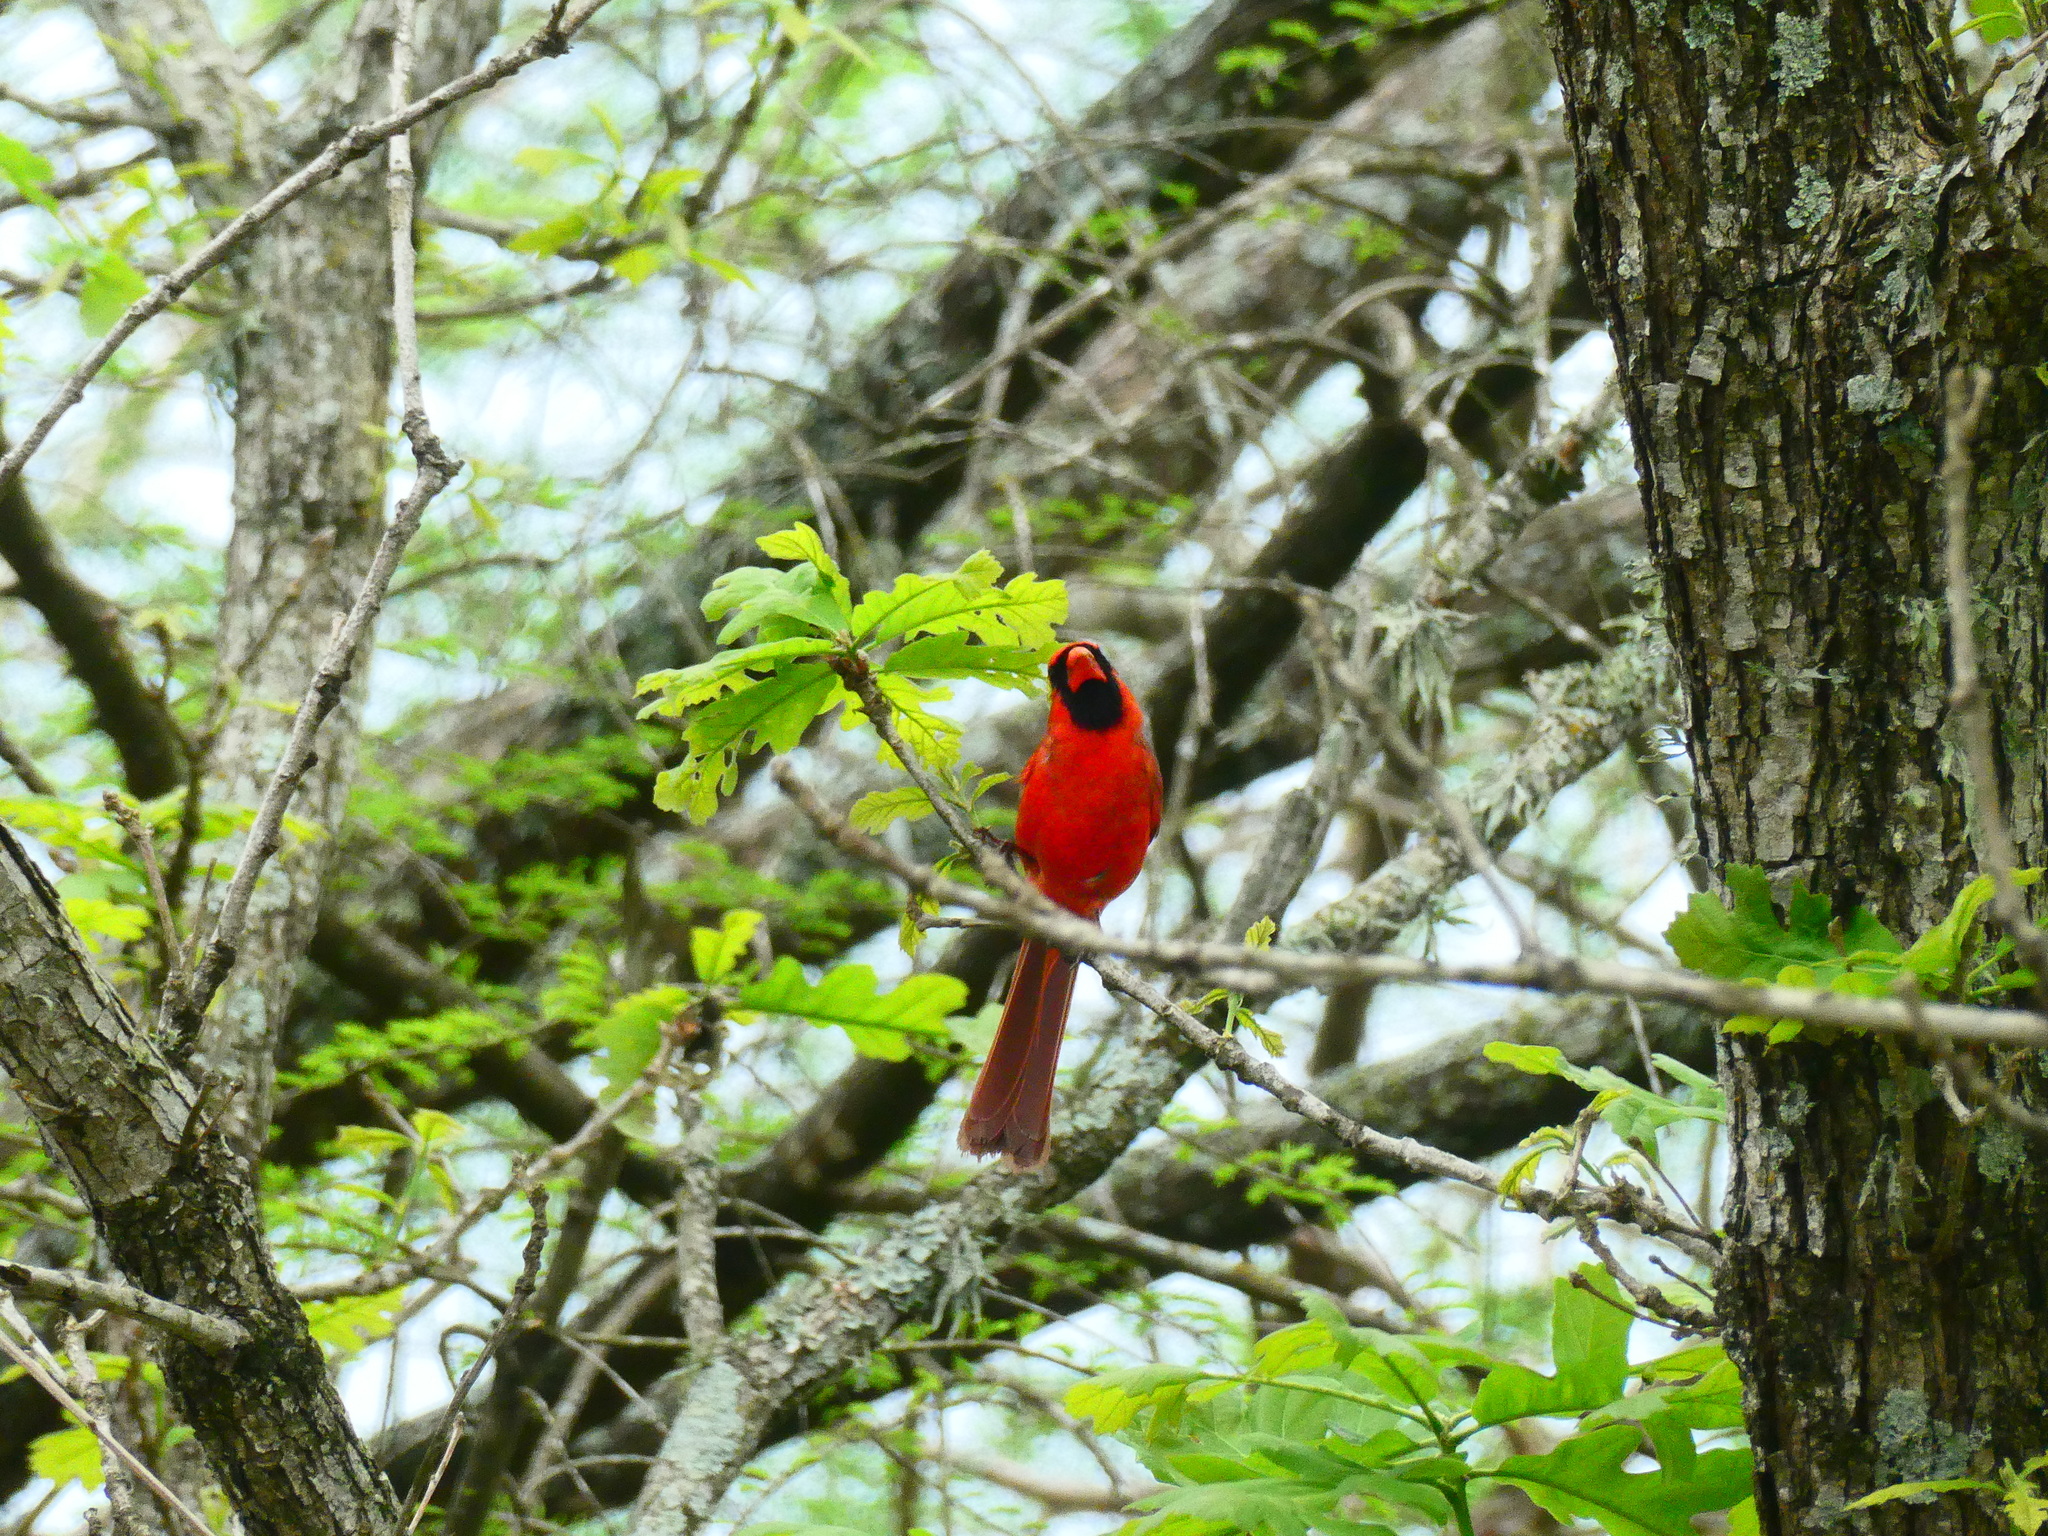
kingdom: Animalia
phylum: Chordata
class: Aves
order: Passeriformes
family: Cardinalidae
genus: Cardinalis
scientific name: Cardinalis cardinalis
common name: Northern cardinal
